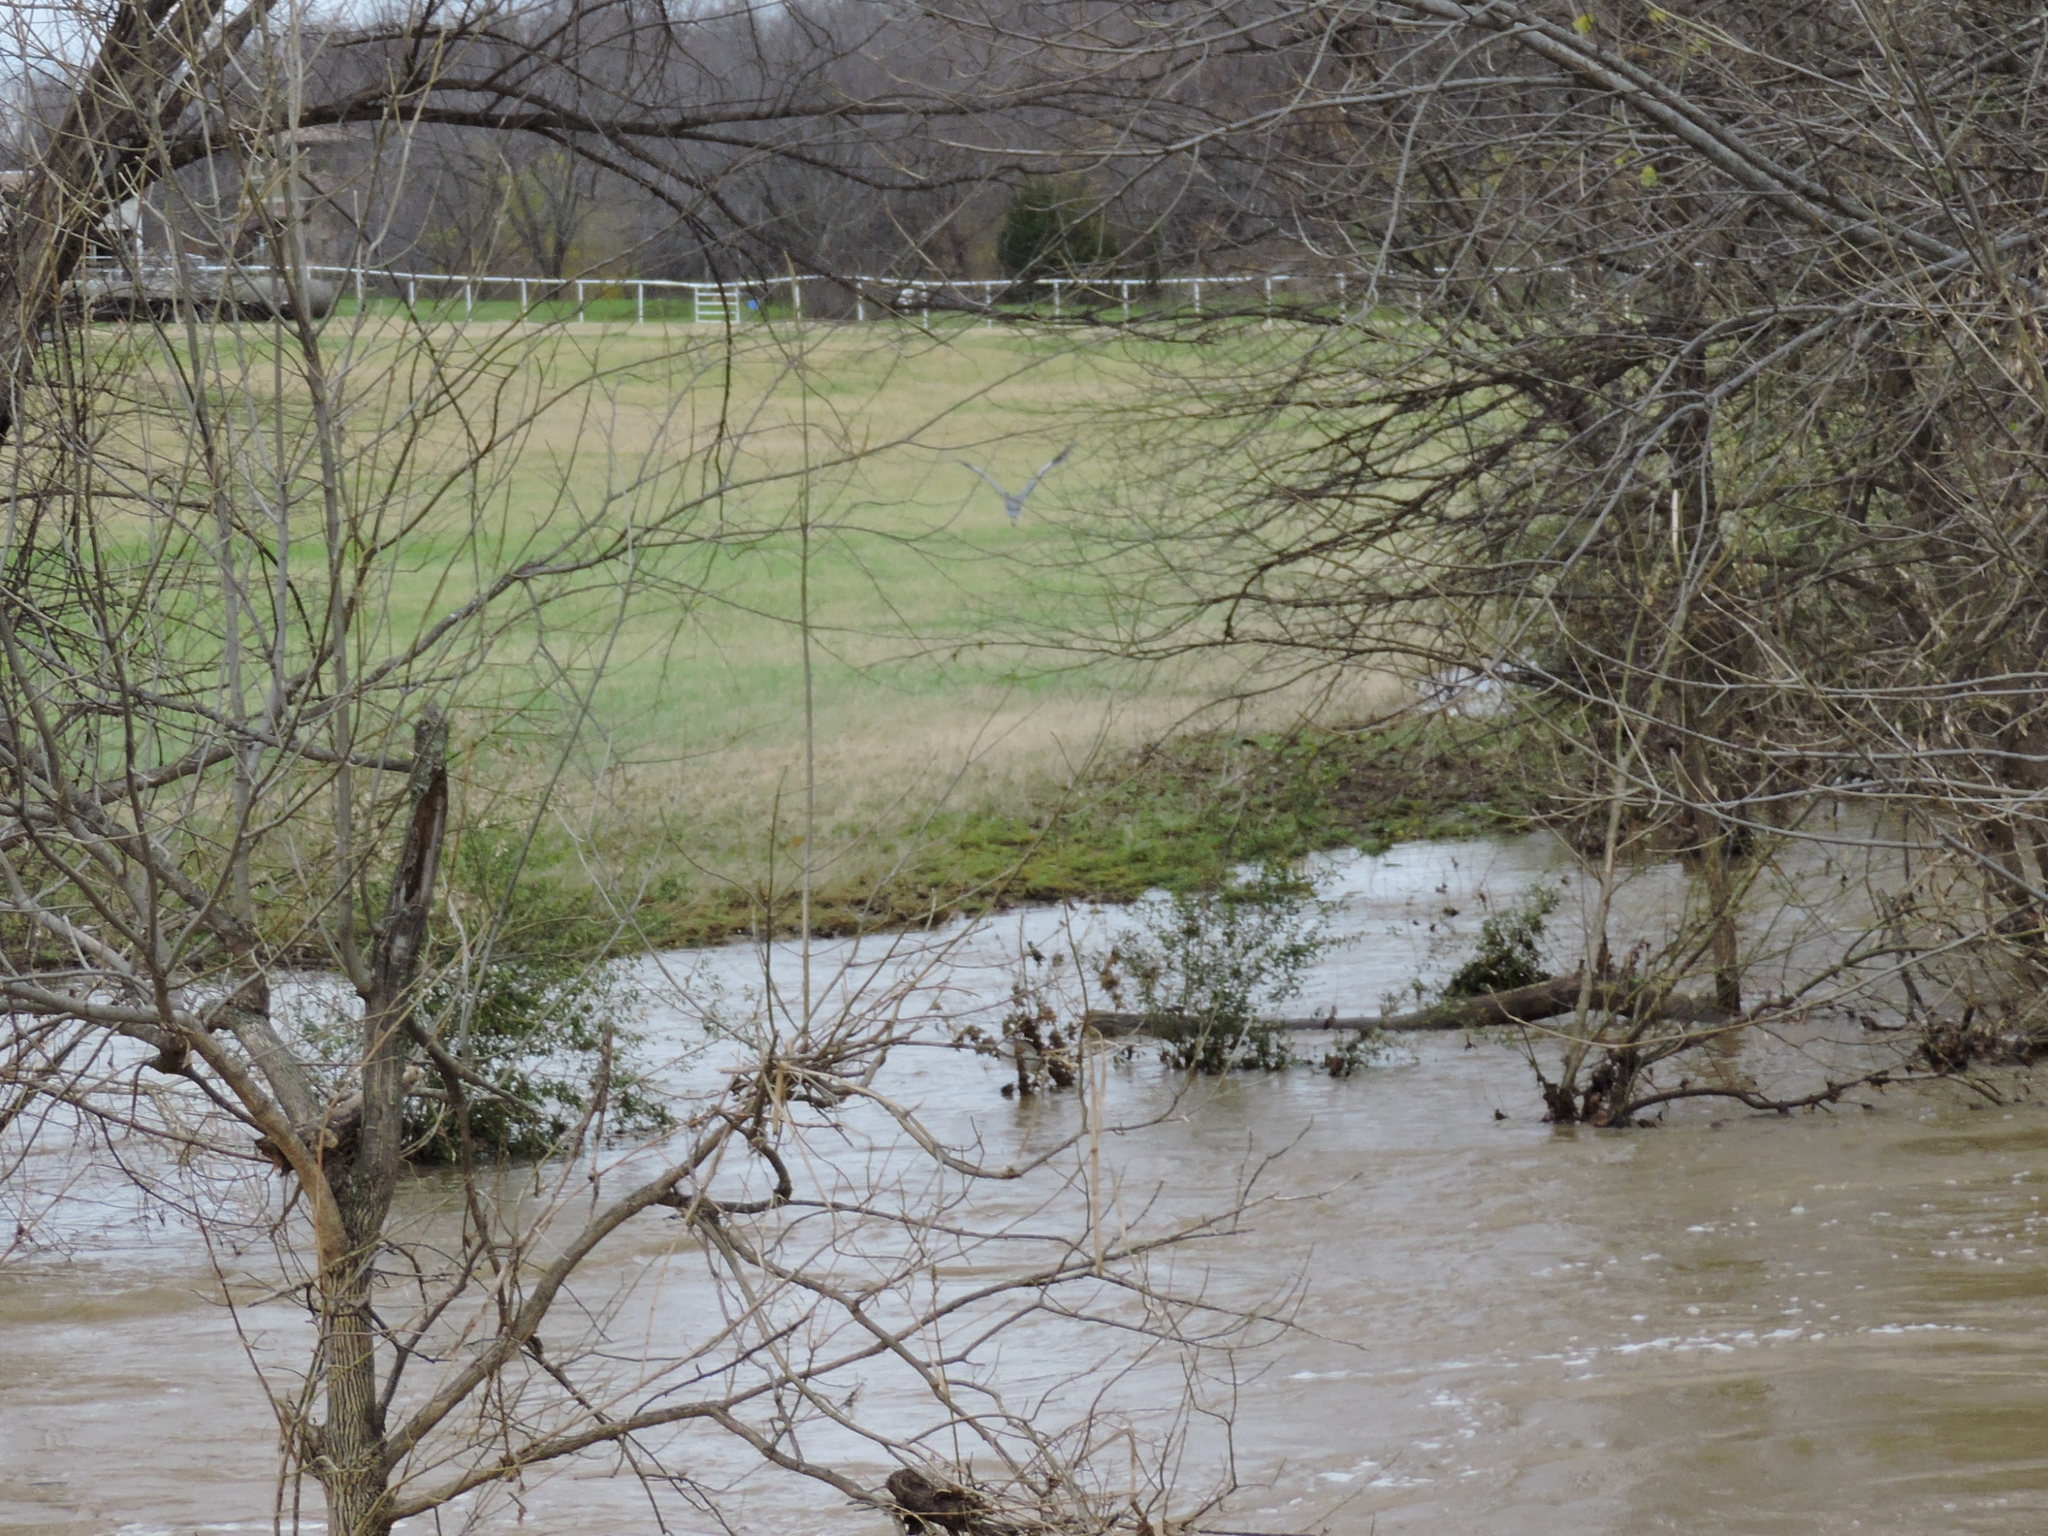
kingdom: Animalia
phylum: Chordata
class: Aves
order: Pelecaniformes
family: Ardeidae
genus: Ardea
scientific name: Ardea herodias
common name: Great blue heron
